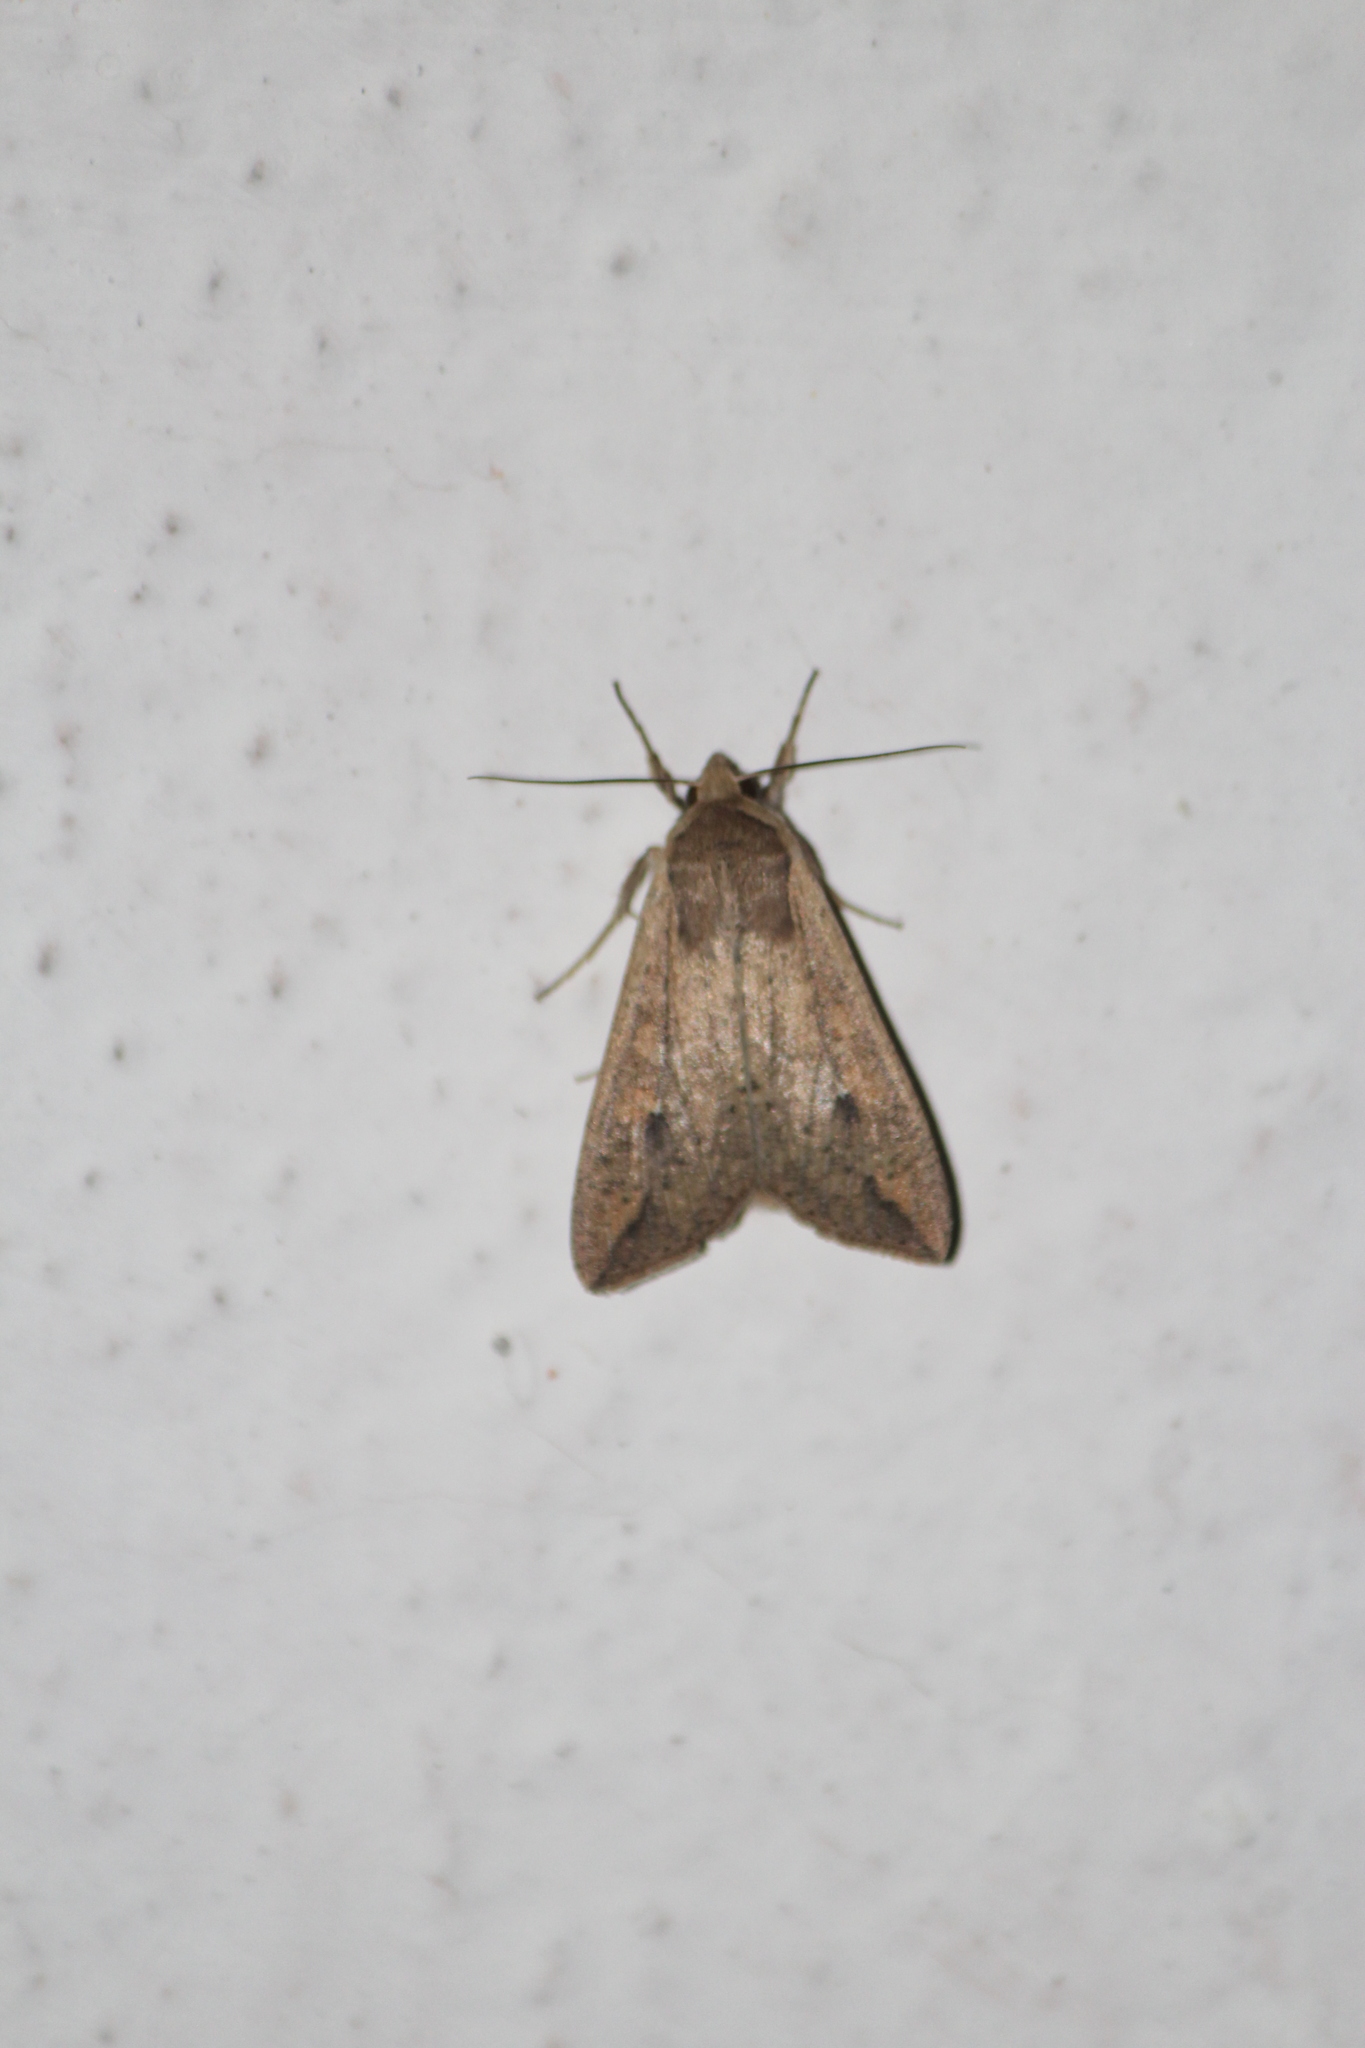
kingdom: Animalia
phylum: Arthropoda
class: Insecta
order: Lepidoptera
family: Noctuidae
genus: Mythimna
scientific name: Mythimna unipuncta
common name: White-speck
